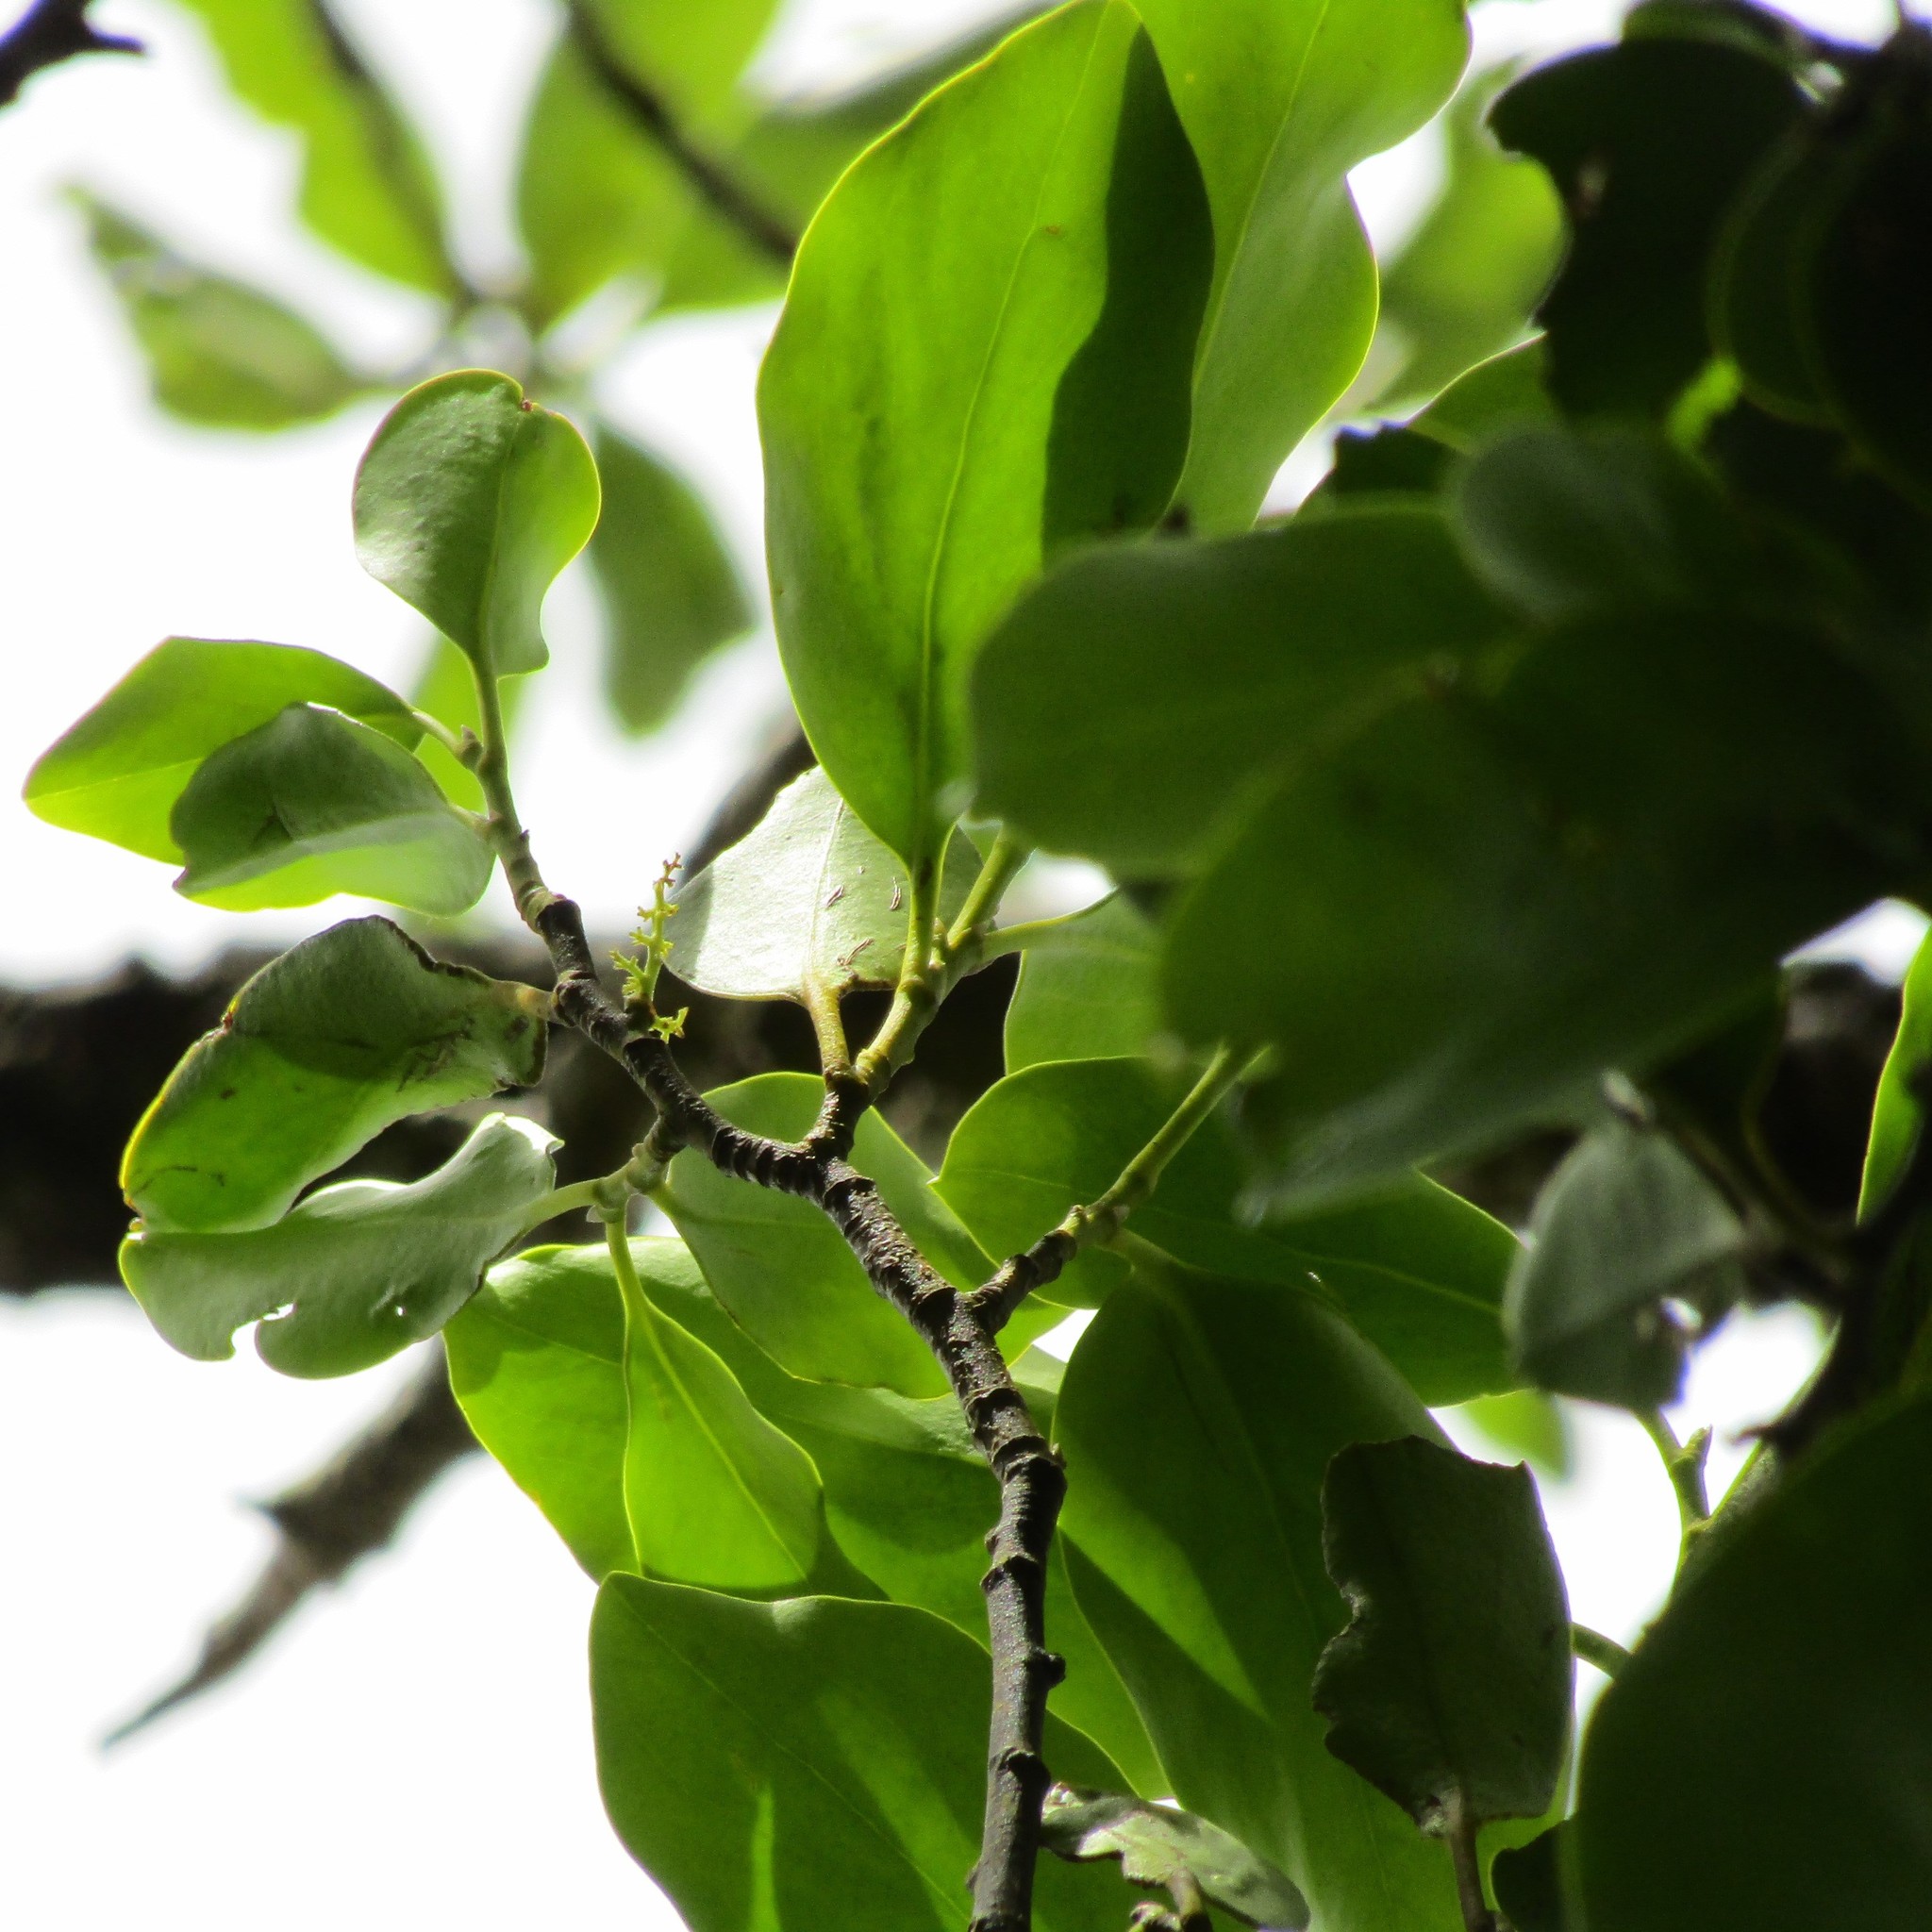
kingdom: Plantae
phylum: Tracheophyta
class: Magnoliopsida
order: Apiales
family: Griseliniaceae
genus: Griselinia
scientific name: Griselinia littoralis
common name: New zealand broadleaf
